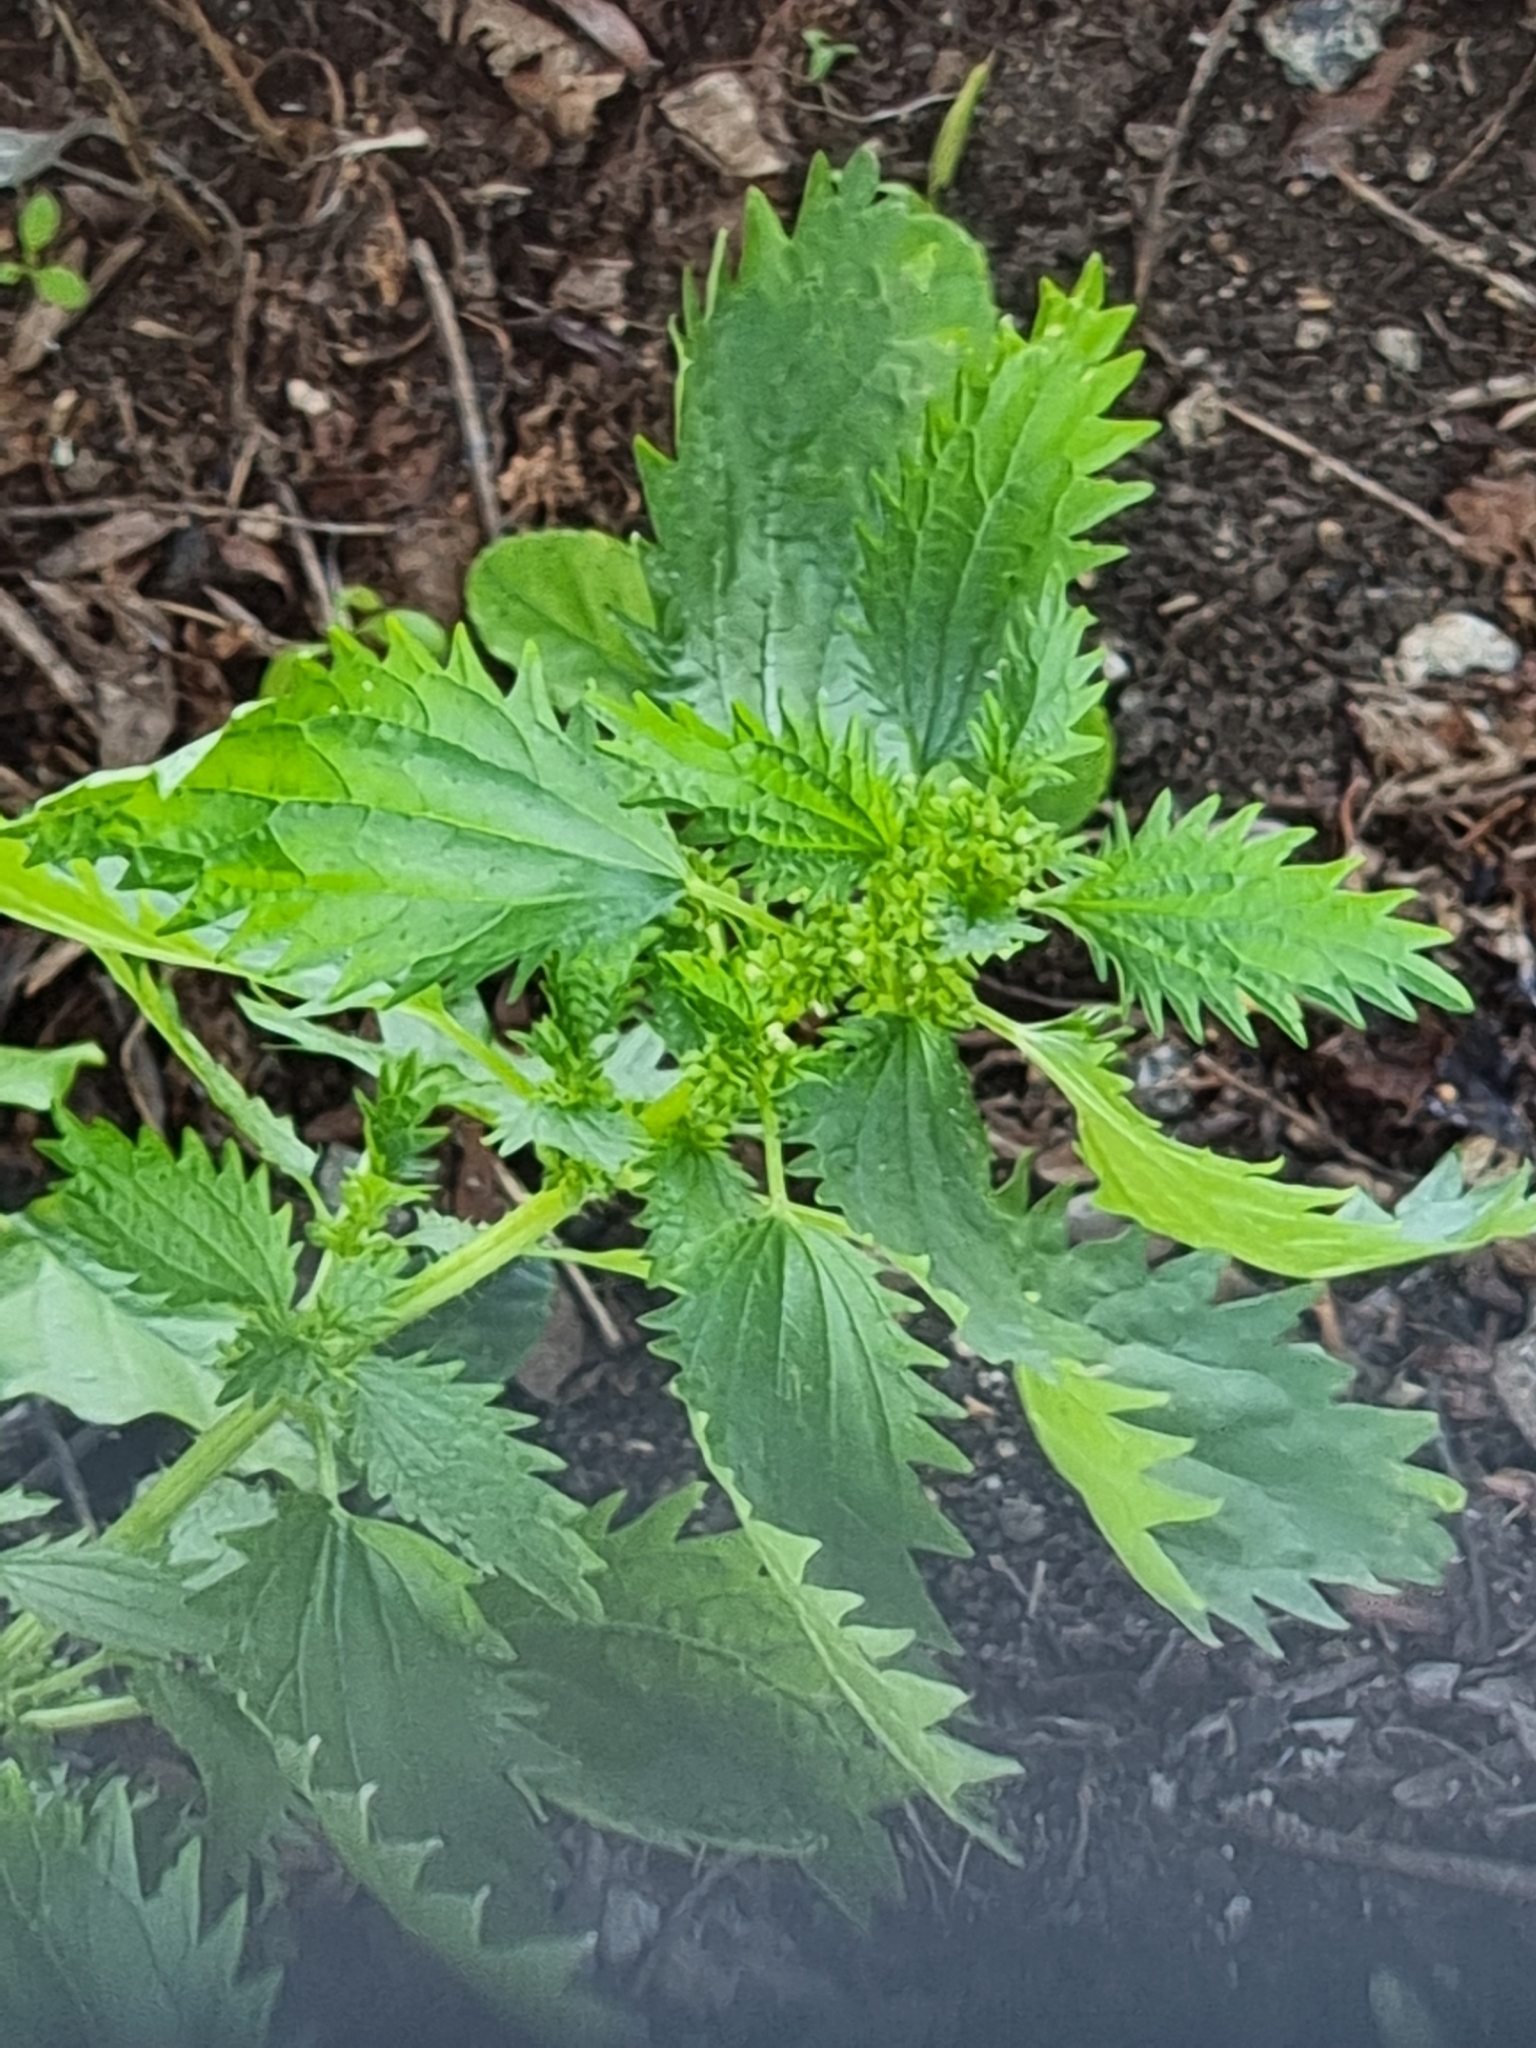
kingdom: Plantae
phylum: Tracheophyta
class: Magnoliopsida
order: Rosales
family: Urticaceae
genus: Urtica
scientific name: Urtica urens
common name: Dwarf nettle
